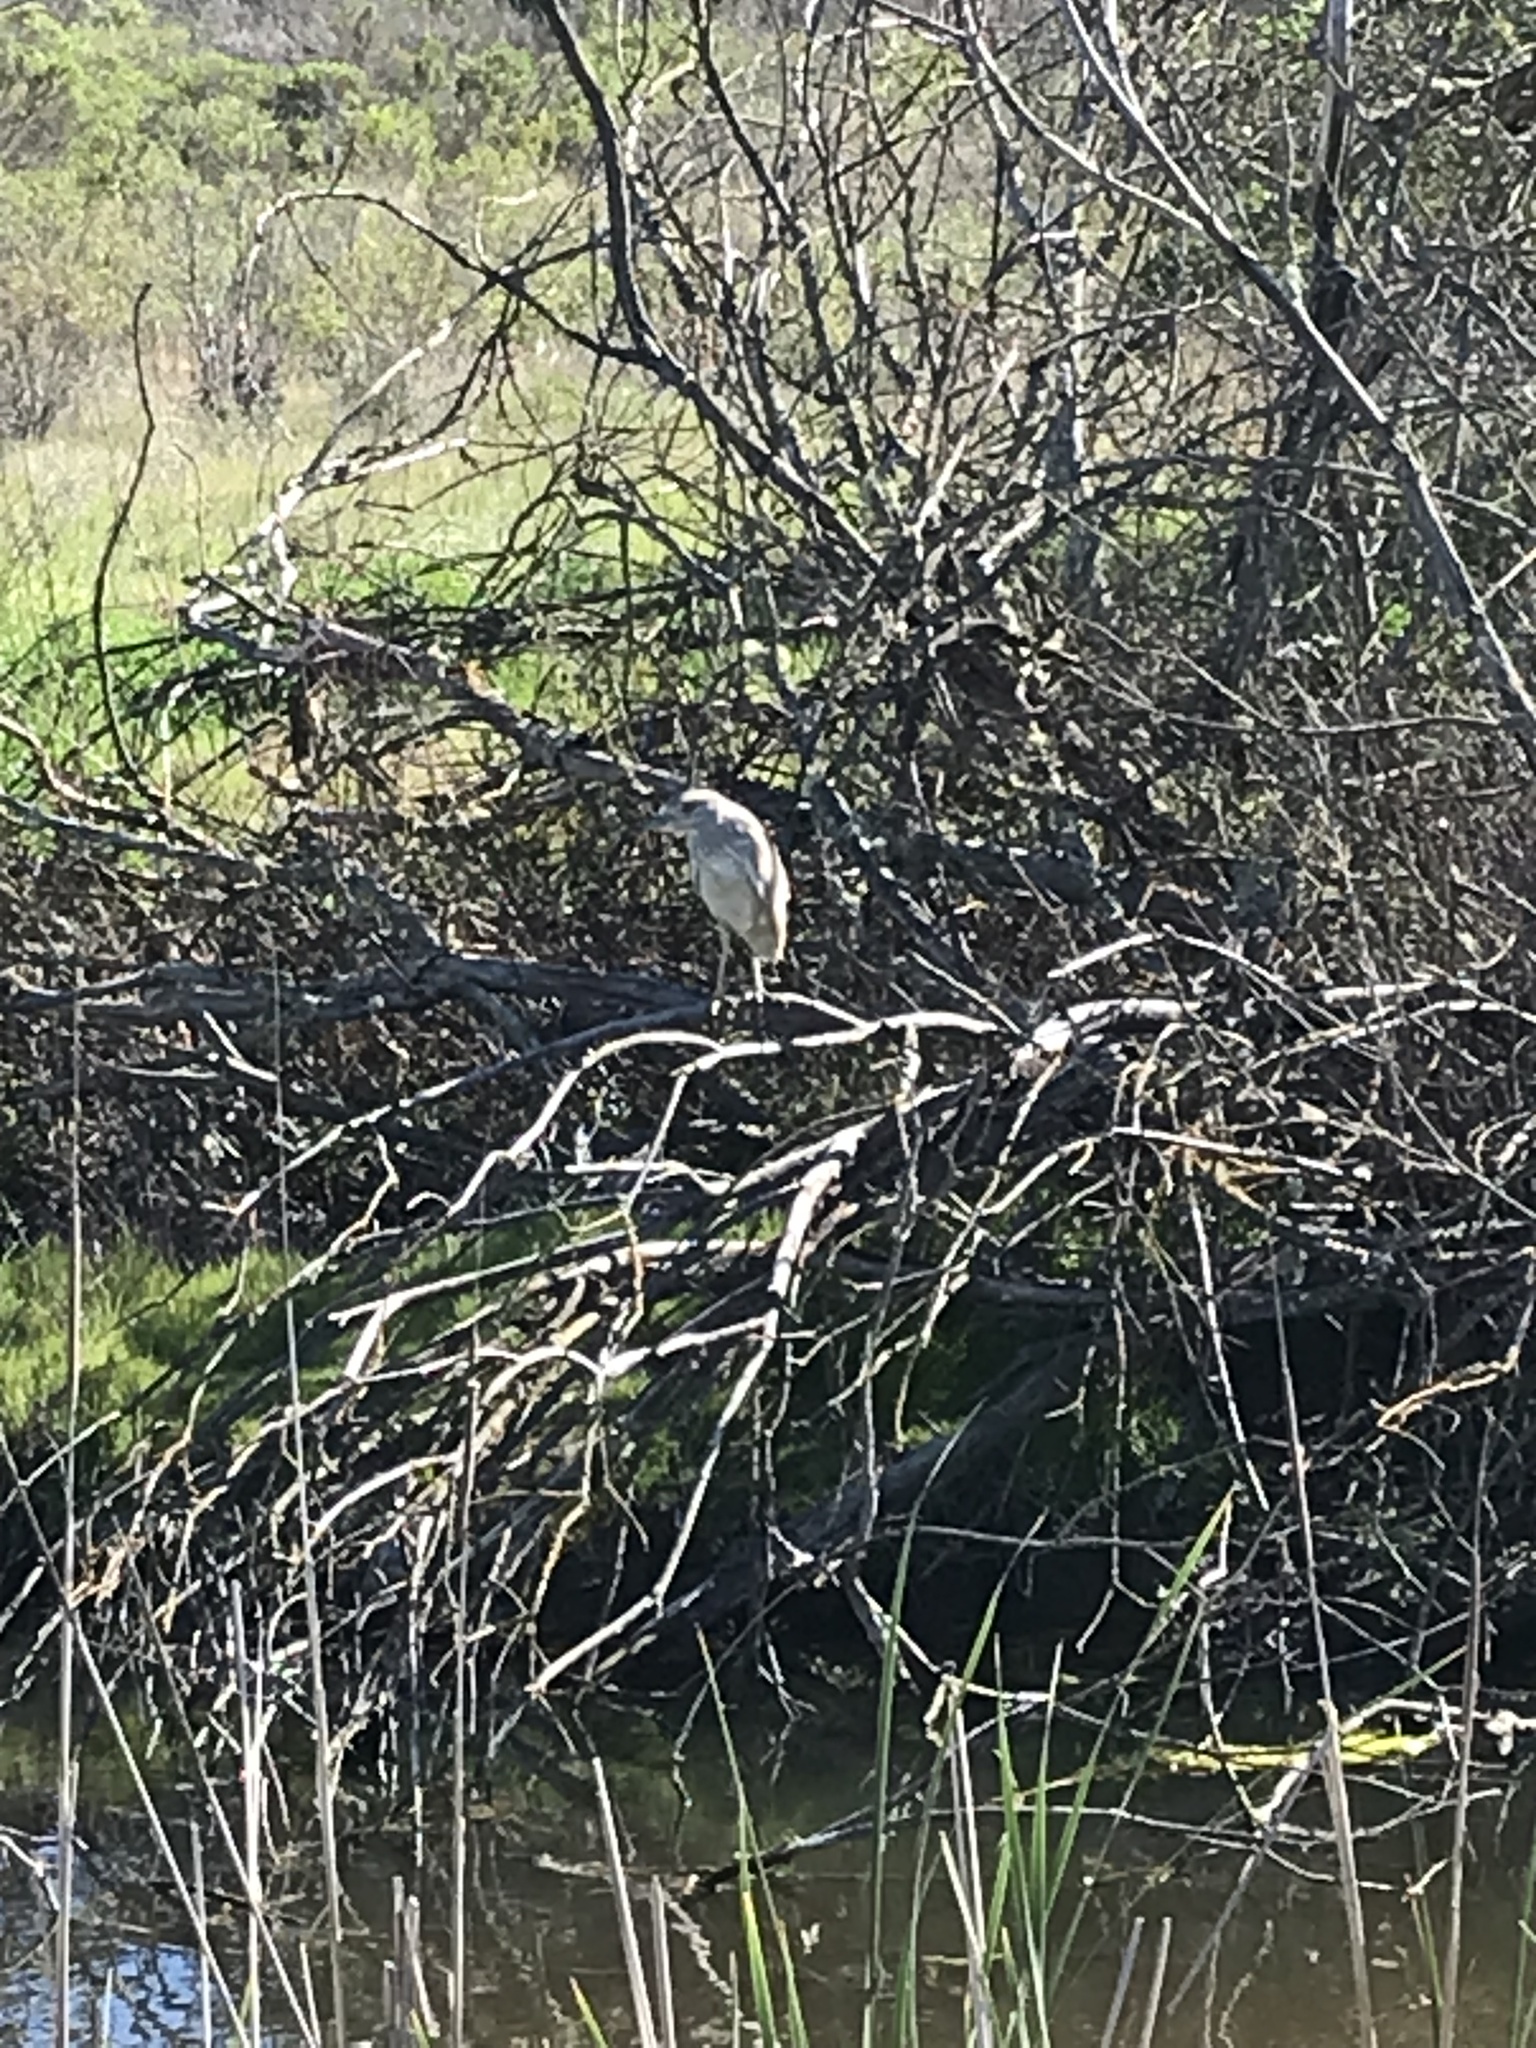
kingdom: Animalia
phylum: Chordata
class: Aves
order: Pelecaniformes
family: Ardeidae
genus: Nycticorax
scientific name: Nycticorax nycticorax
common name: Black-crowned night heron
